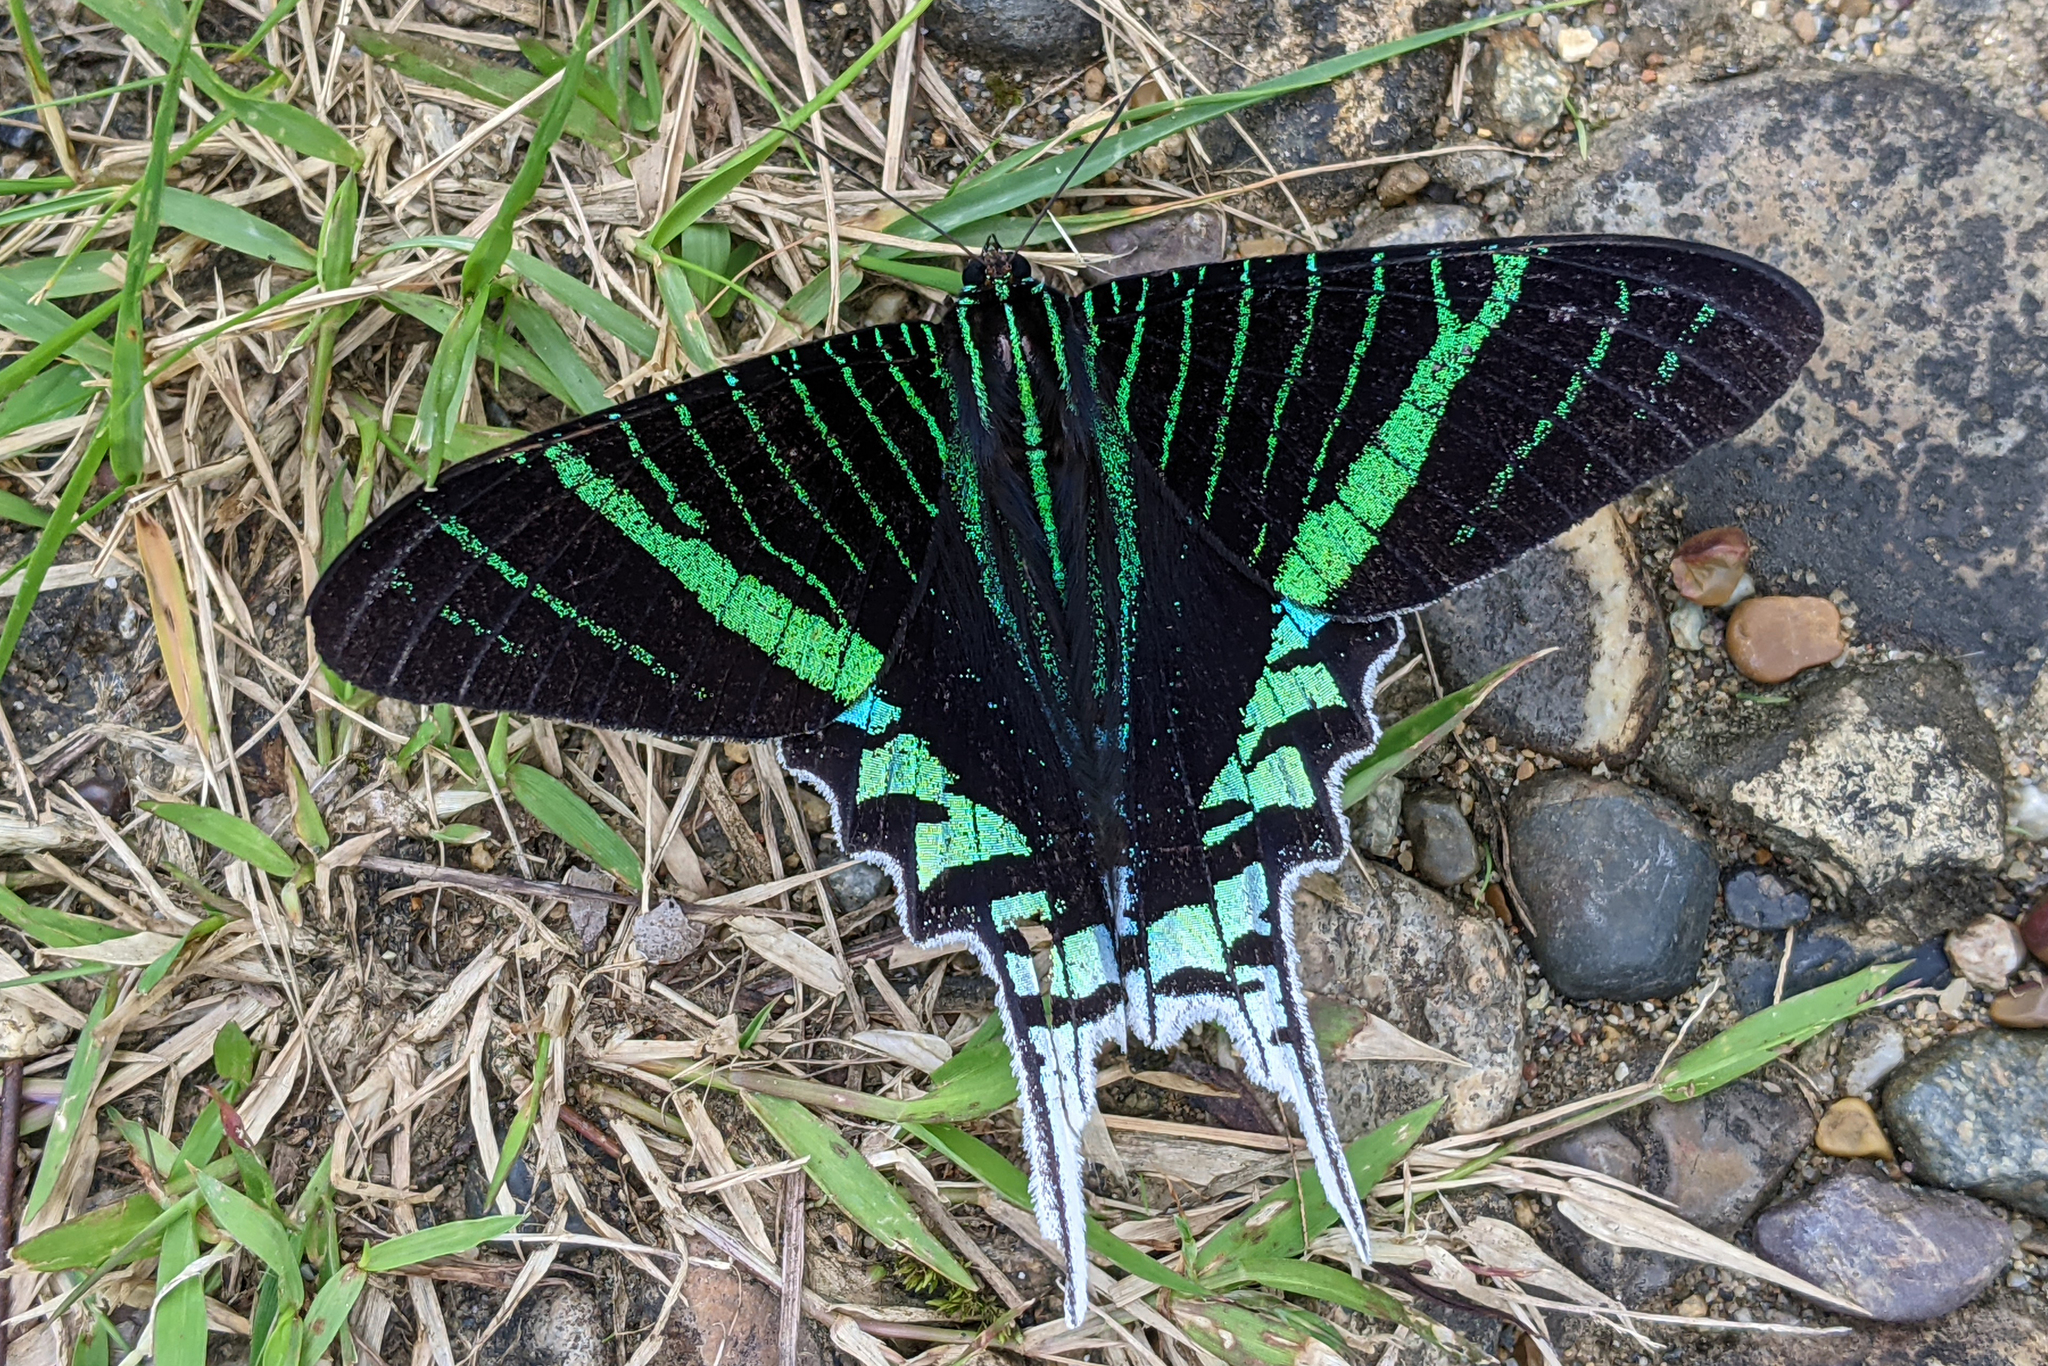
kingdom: Animalia
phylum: Arthropoda
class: Insecta
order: Lepidoptera
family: Uraniidae
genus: Urania
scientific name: Urania leilus
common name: Peacock moth
